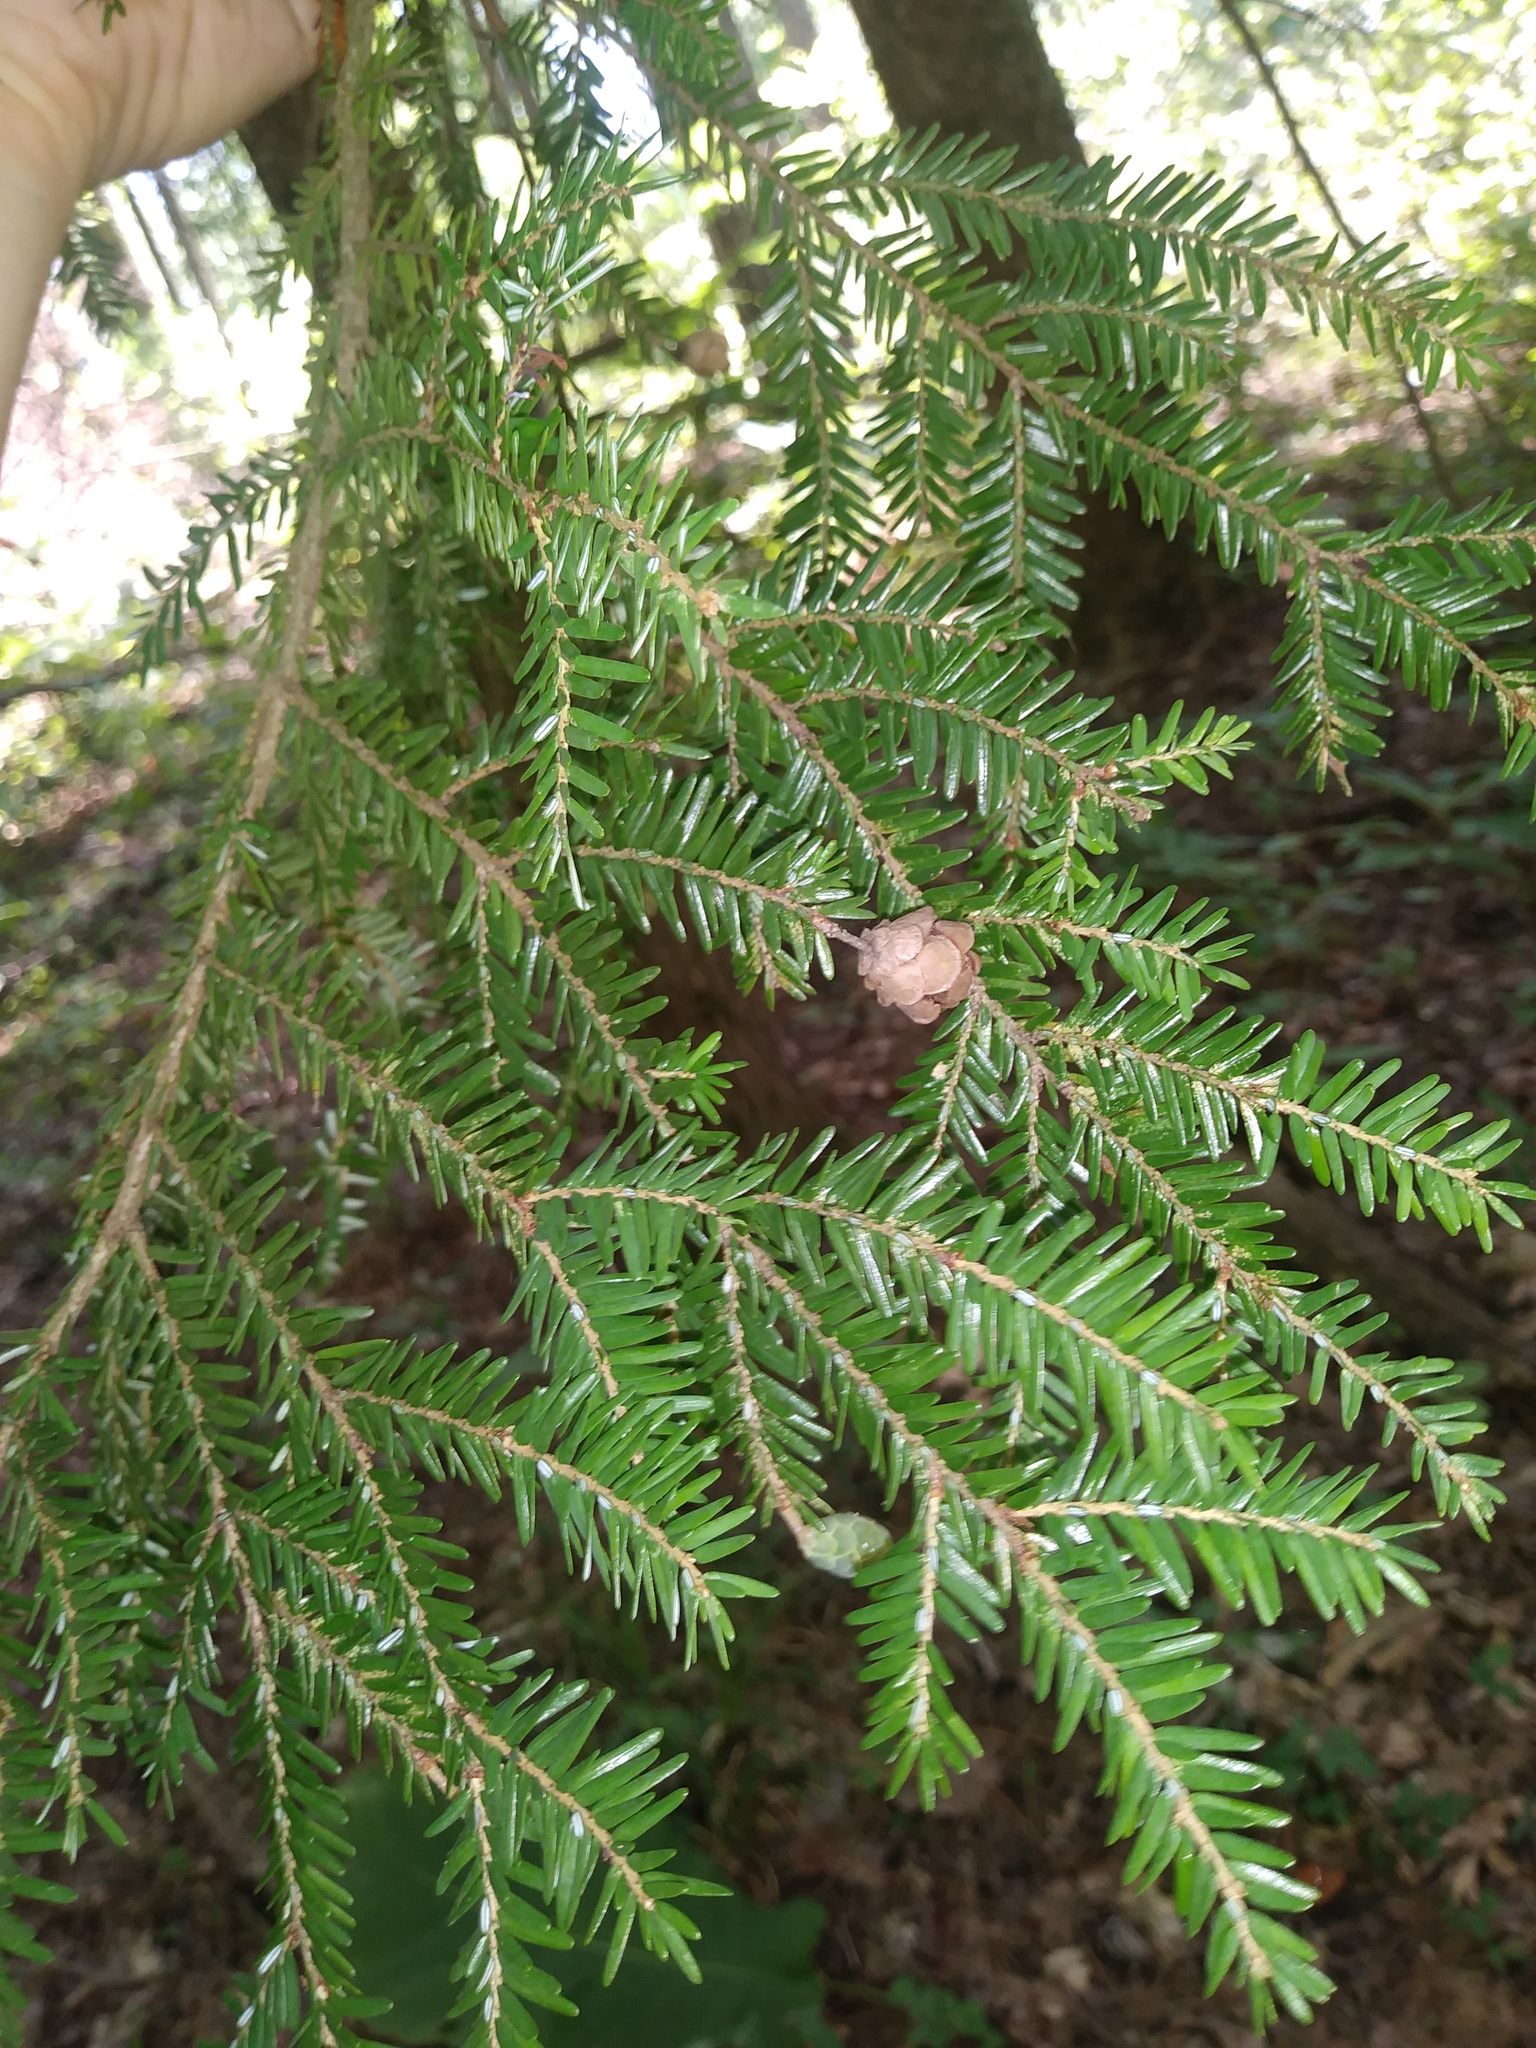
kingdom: Plantae
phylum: Tracheophyta
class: Pinopsida
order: Pinales
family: Pinaceae
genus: Tsuga
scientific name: Tsuga canadensis
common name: Eastern hemlock
